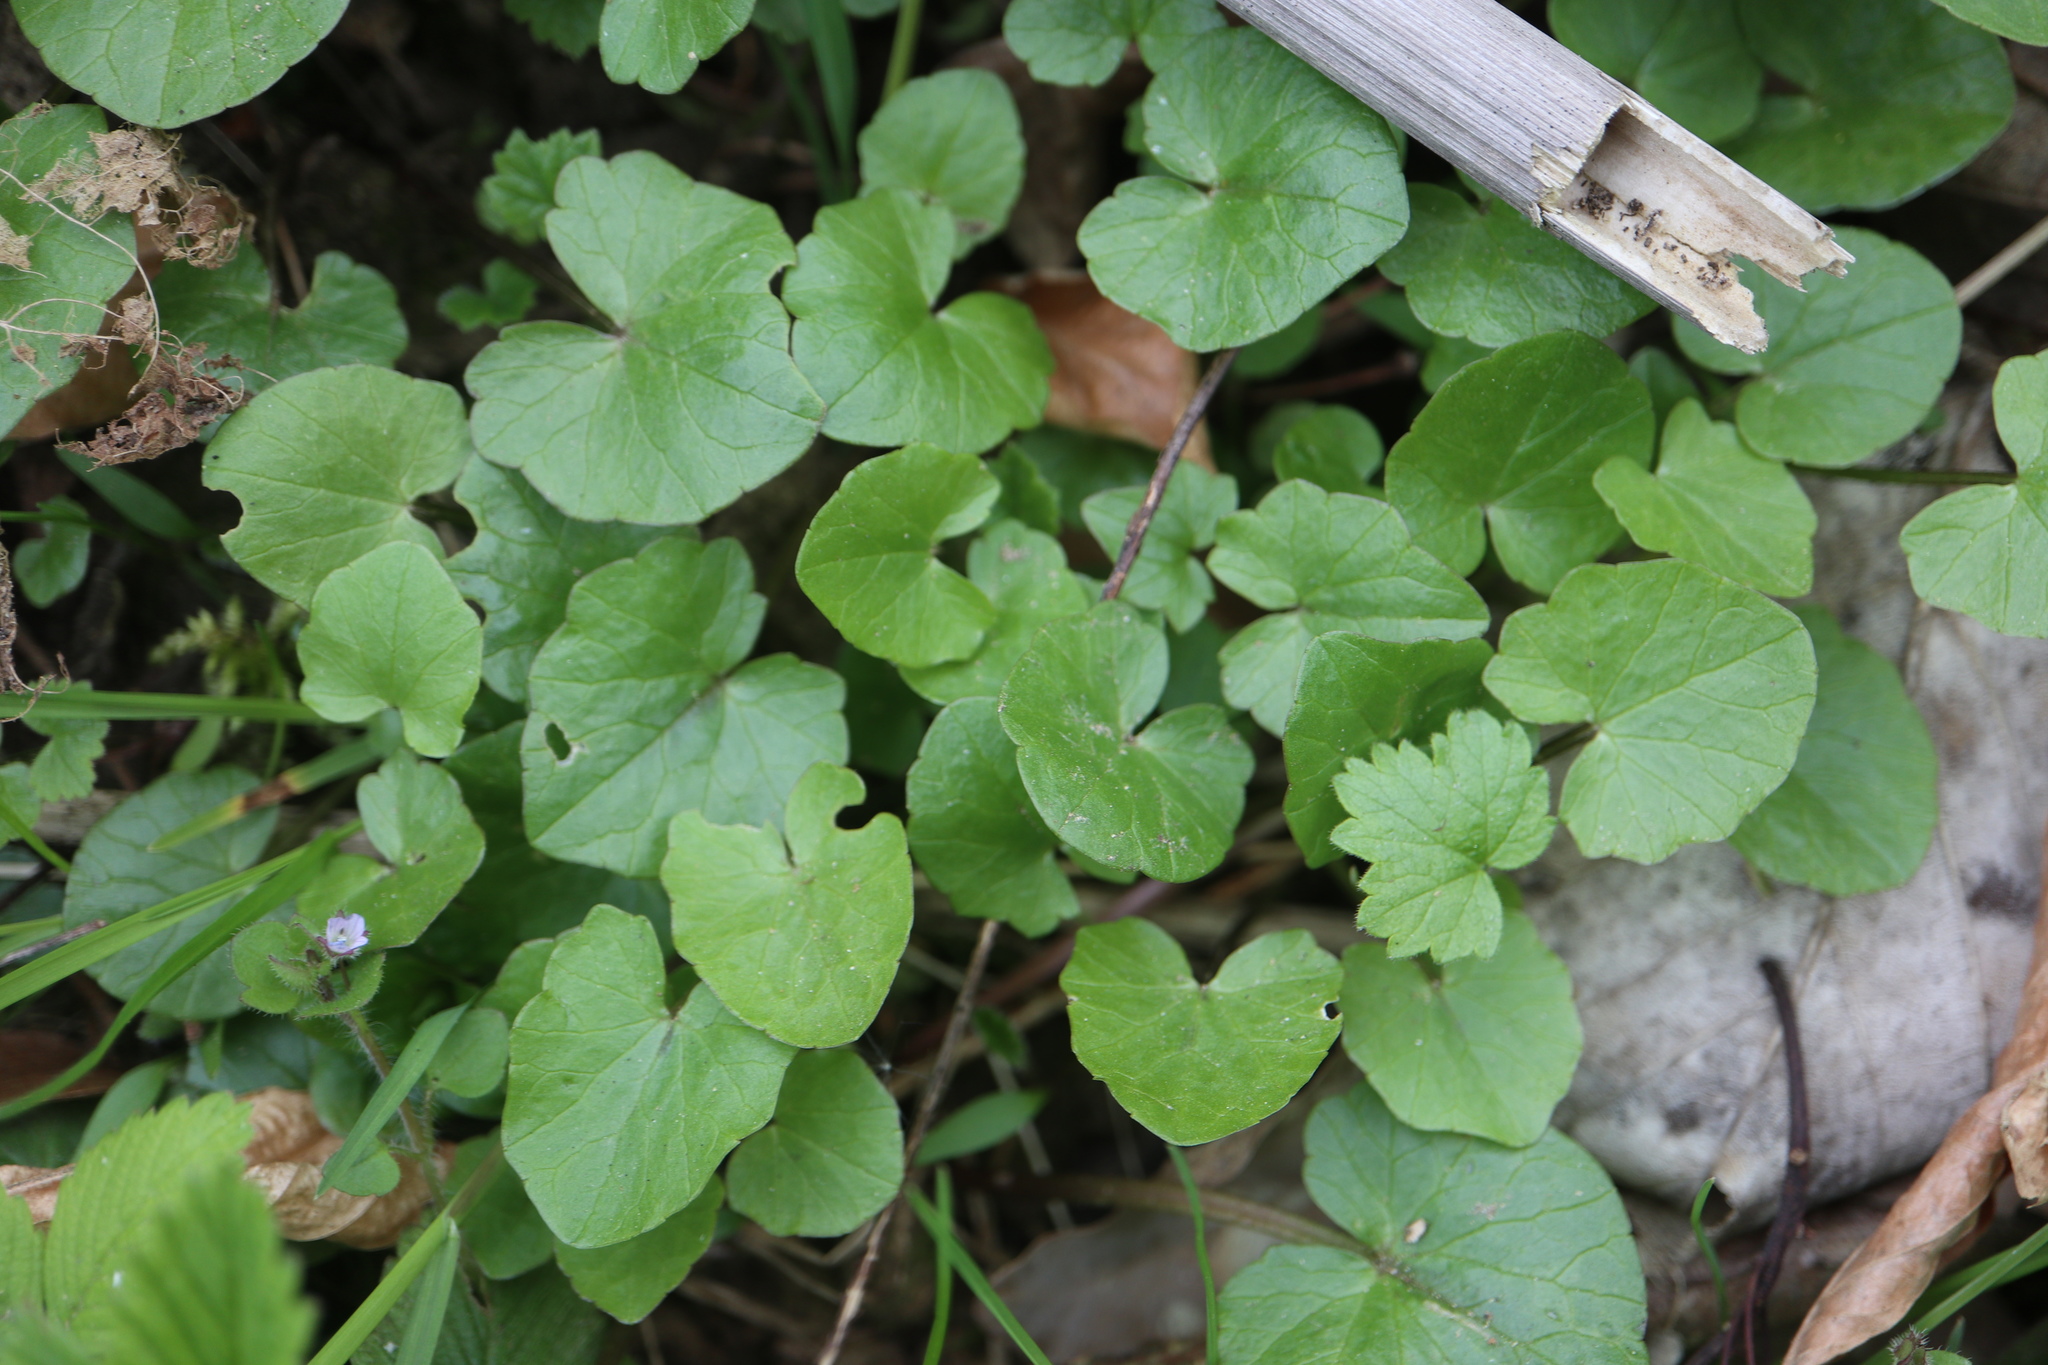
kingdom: Plantae
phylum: Tracheophyta
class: Magnoliopsida
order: Ranunculales
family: Ranunculaceae
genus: Ficaria
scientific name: Ficaria verna
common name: Lesser celandine
